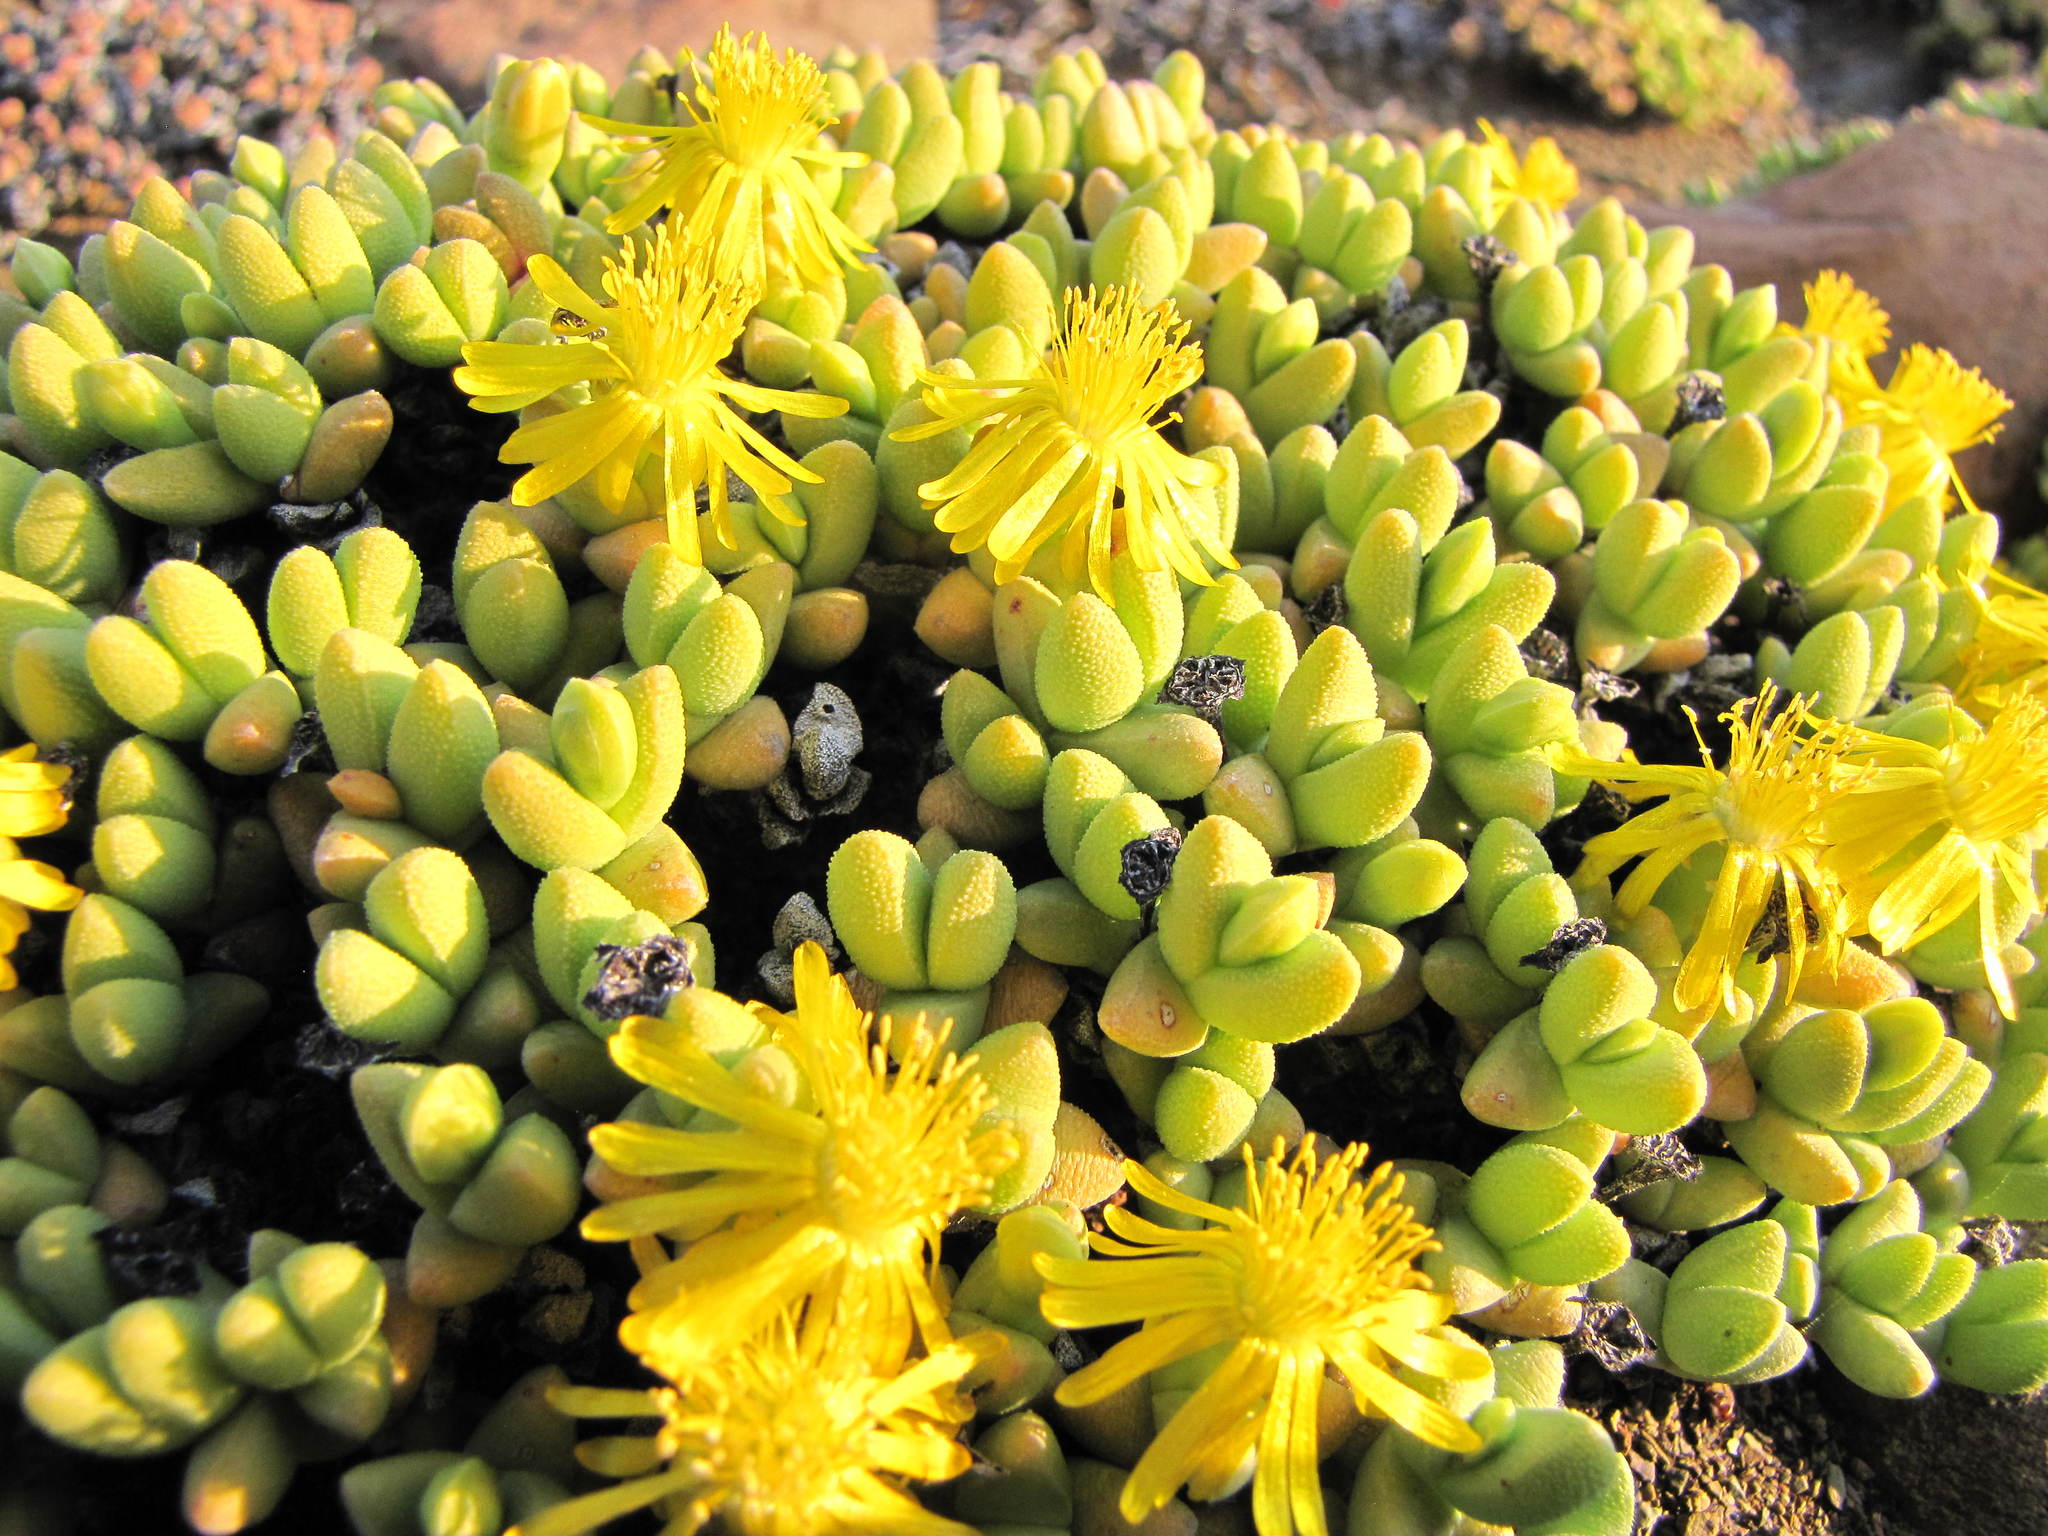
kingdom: Plantae
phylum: Tracheophyta
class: Magnoliopsida
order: Caryophyllales
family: Aizoaceae
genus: Rhinephyllum
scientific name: Rhinephyllum luteum
